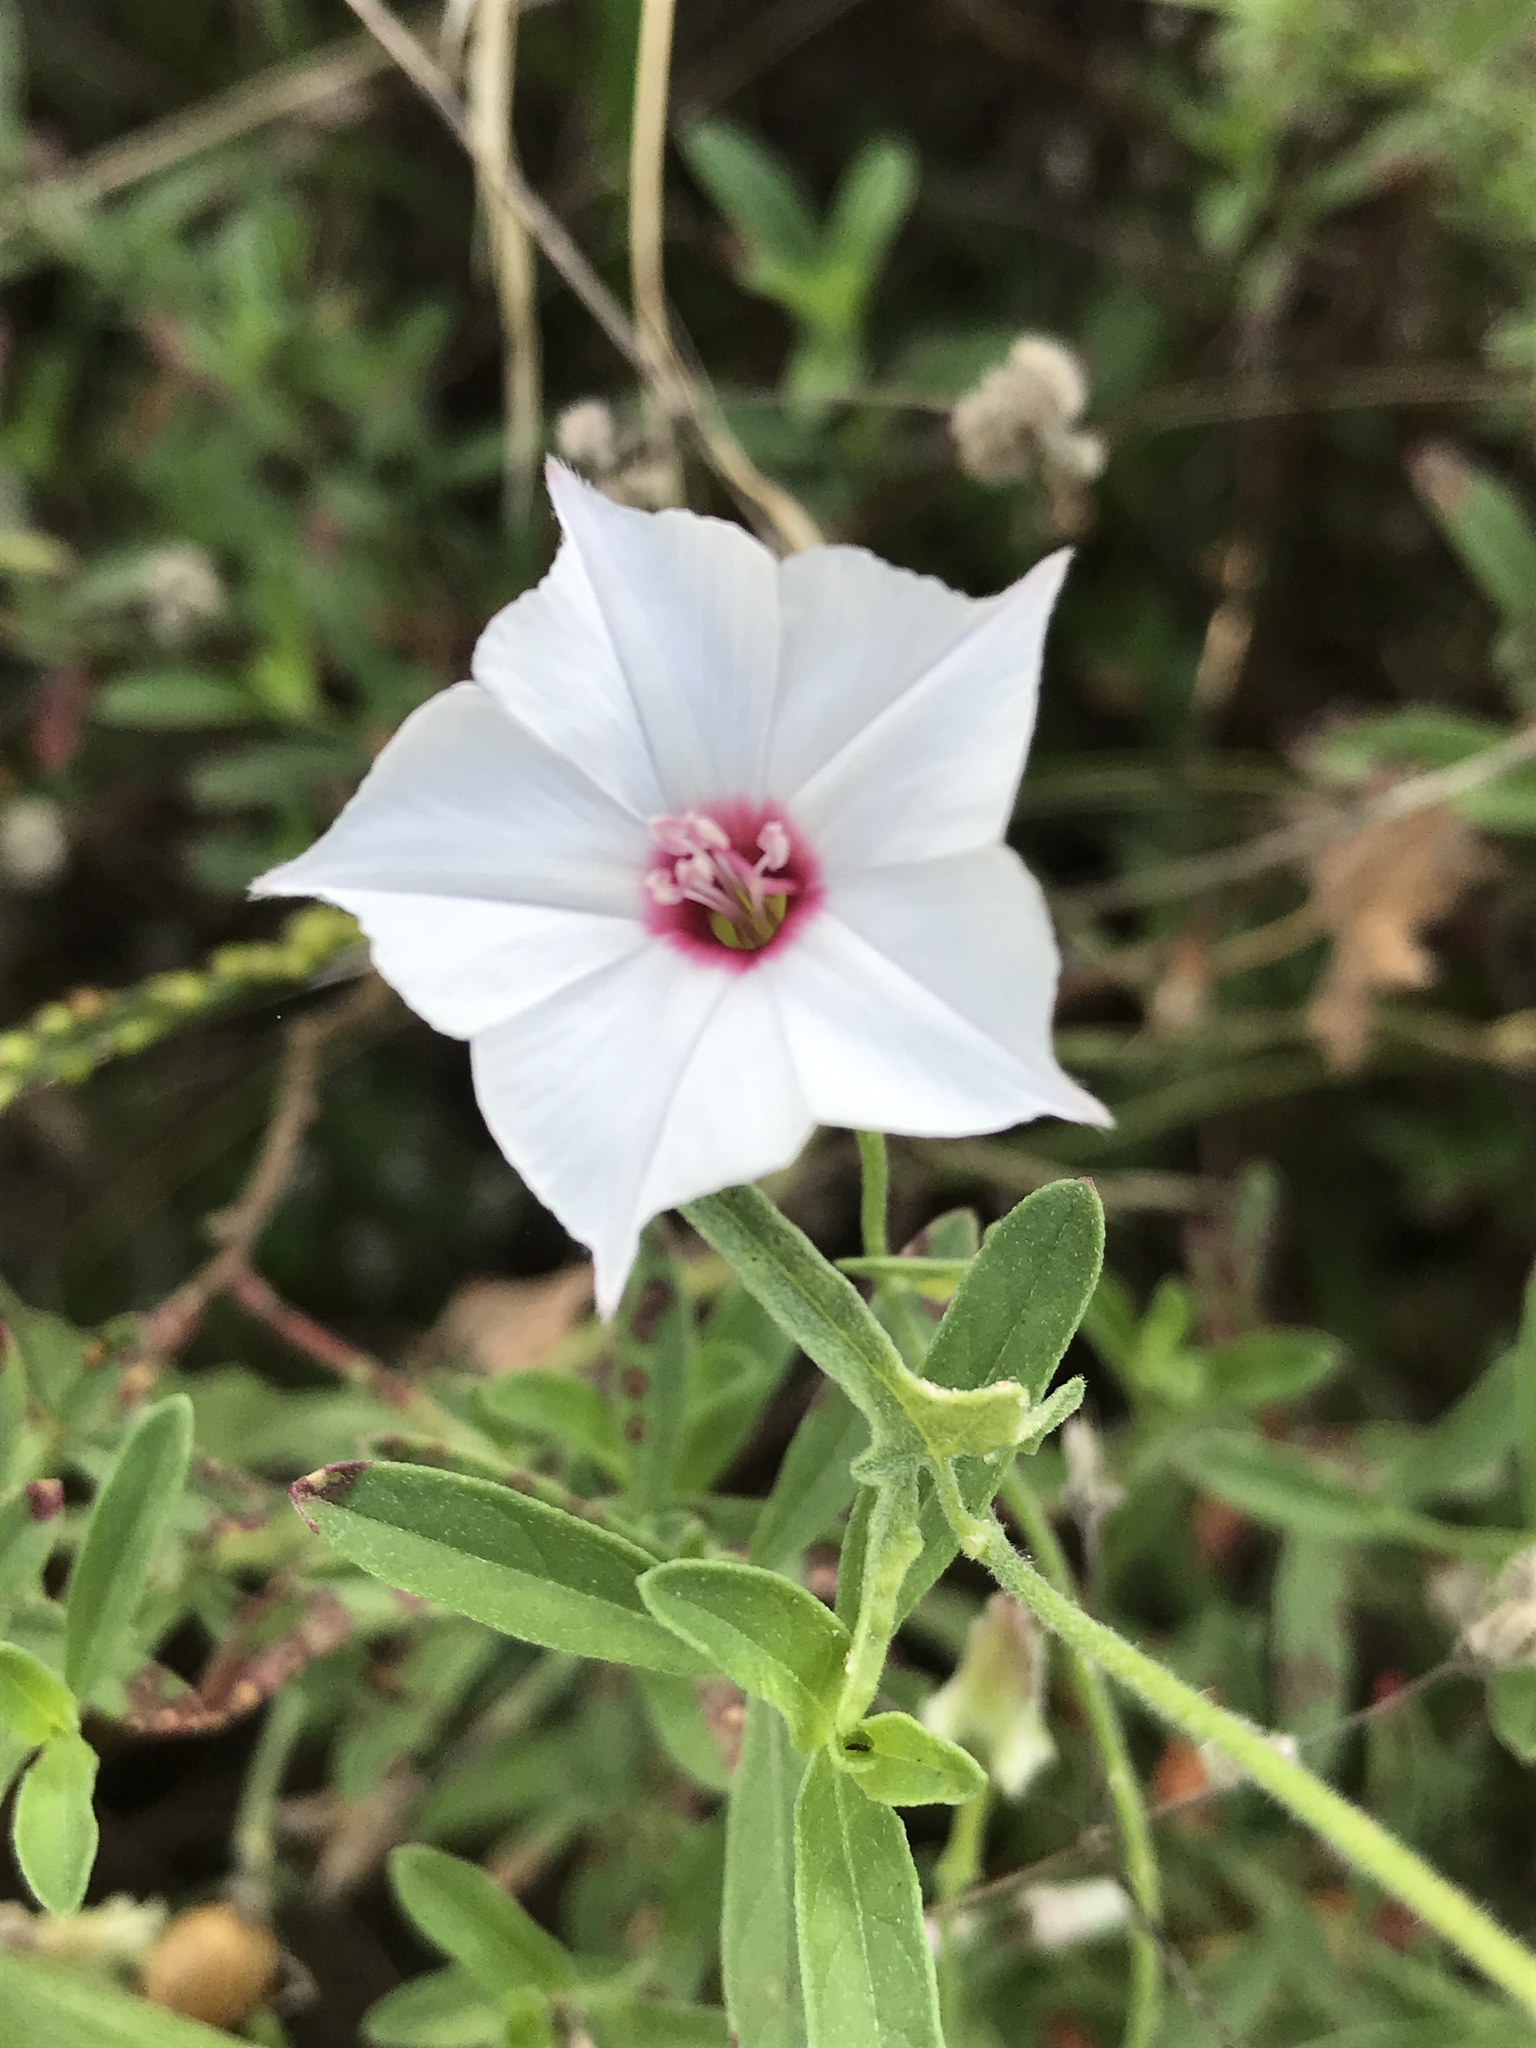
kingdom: Plantae
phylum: Tracheophyta
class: Magnoliopsida
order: Solanales
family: Convolvulaceae
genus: Convolvulus
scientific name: Convolvulus equitans
